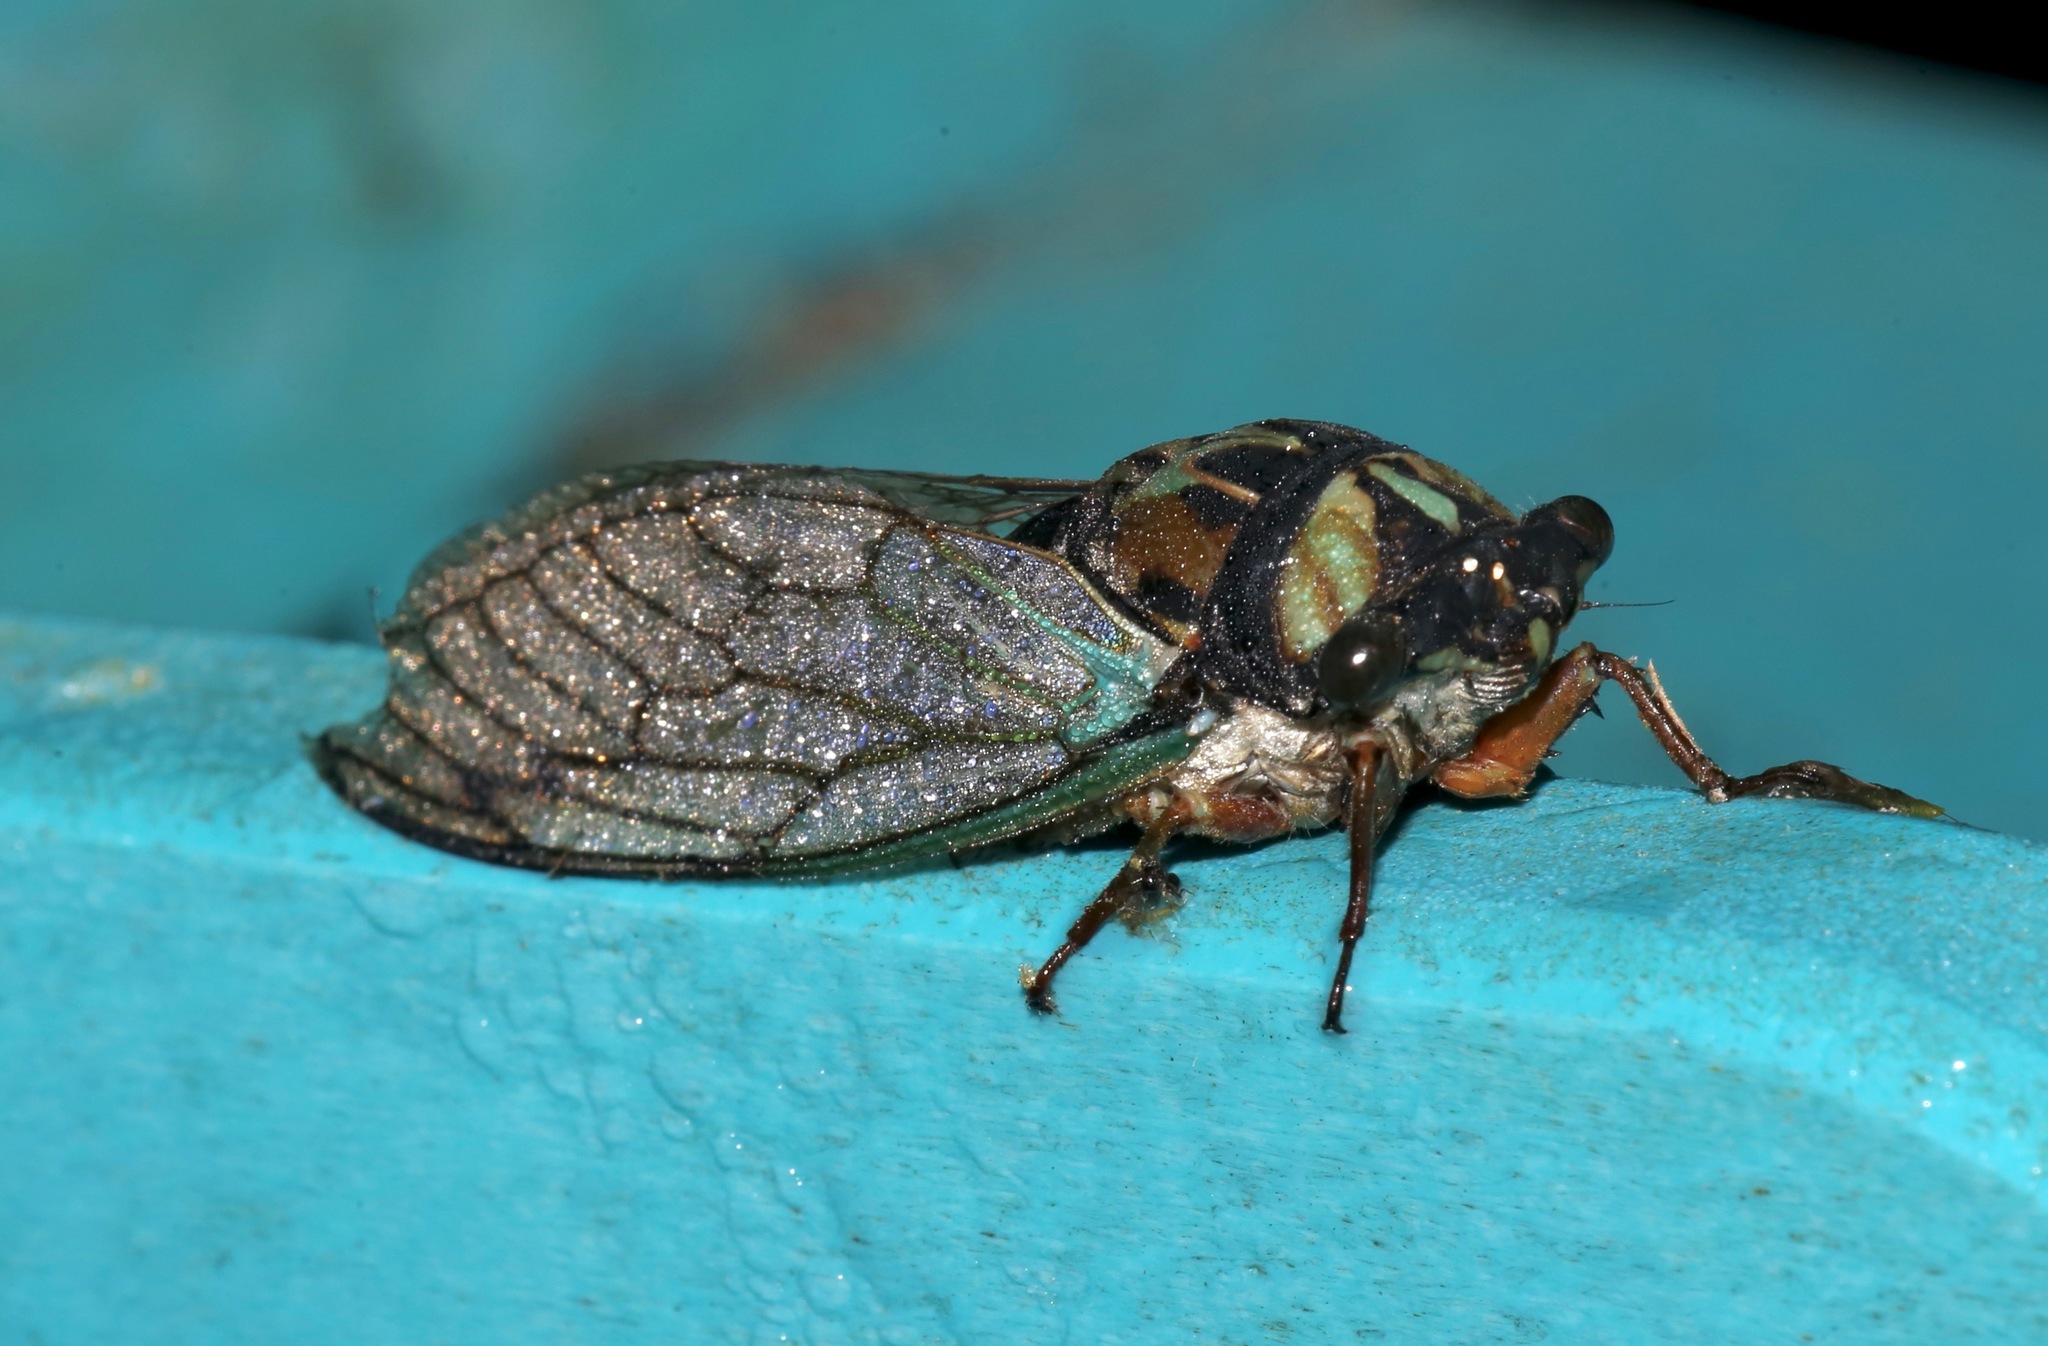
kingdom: Animalia
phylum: Arthropoda
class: Insecta
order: Hemiptera
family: Cicadidae
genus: Neotibicen
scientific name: Neotibicen lyricen
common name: Lyric cicada
